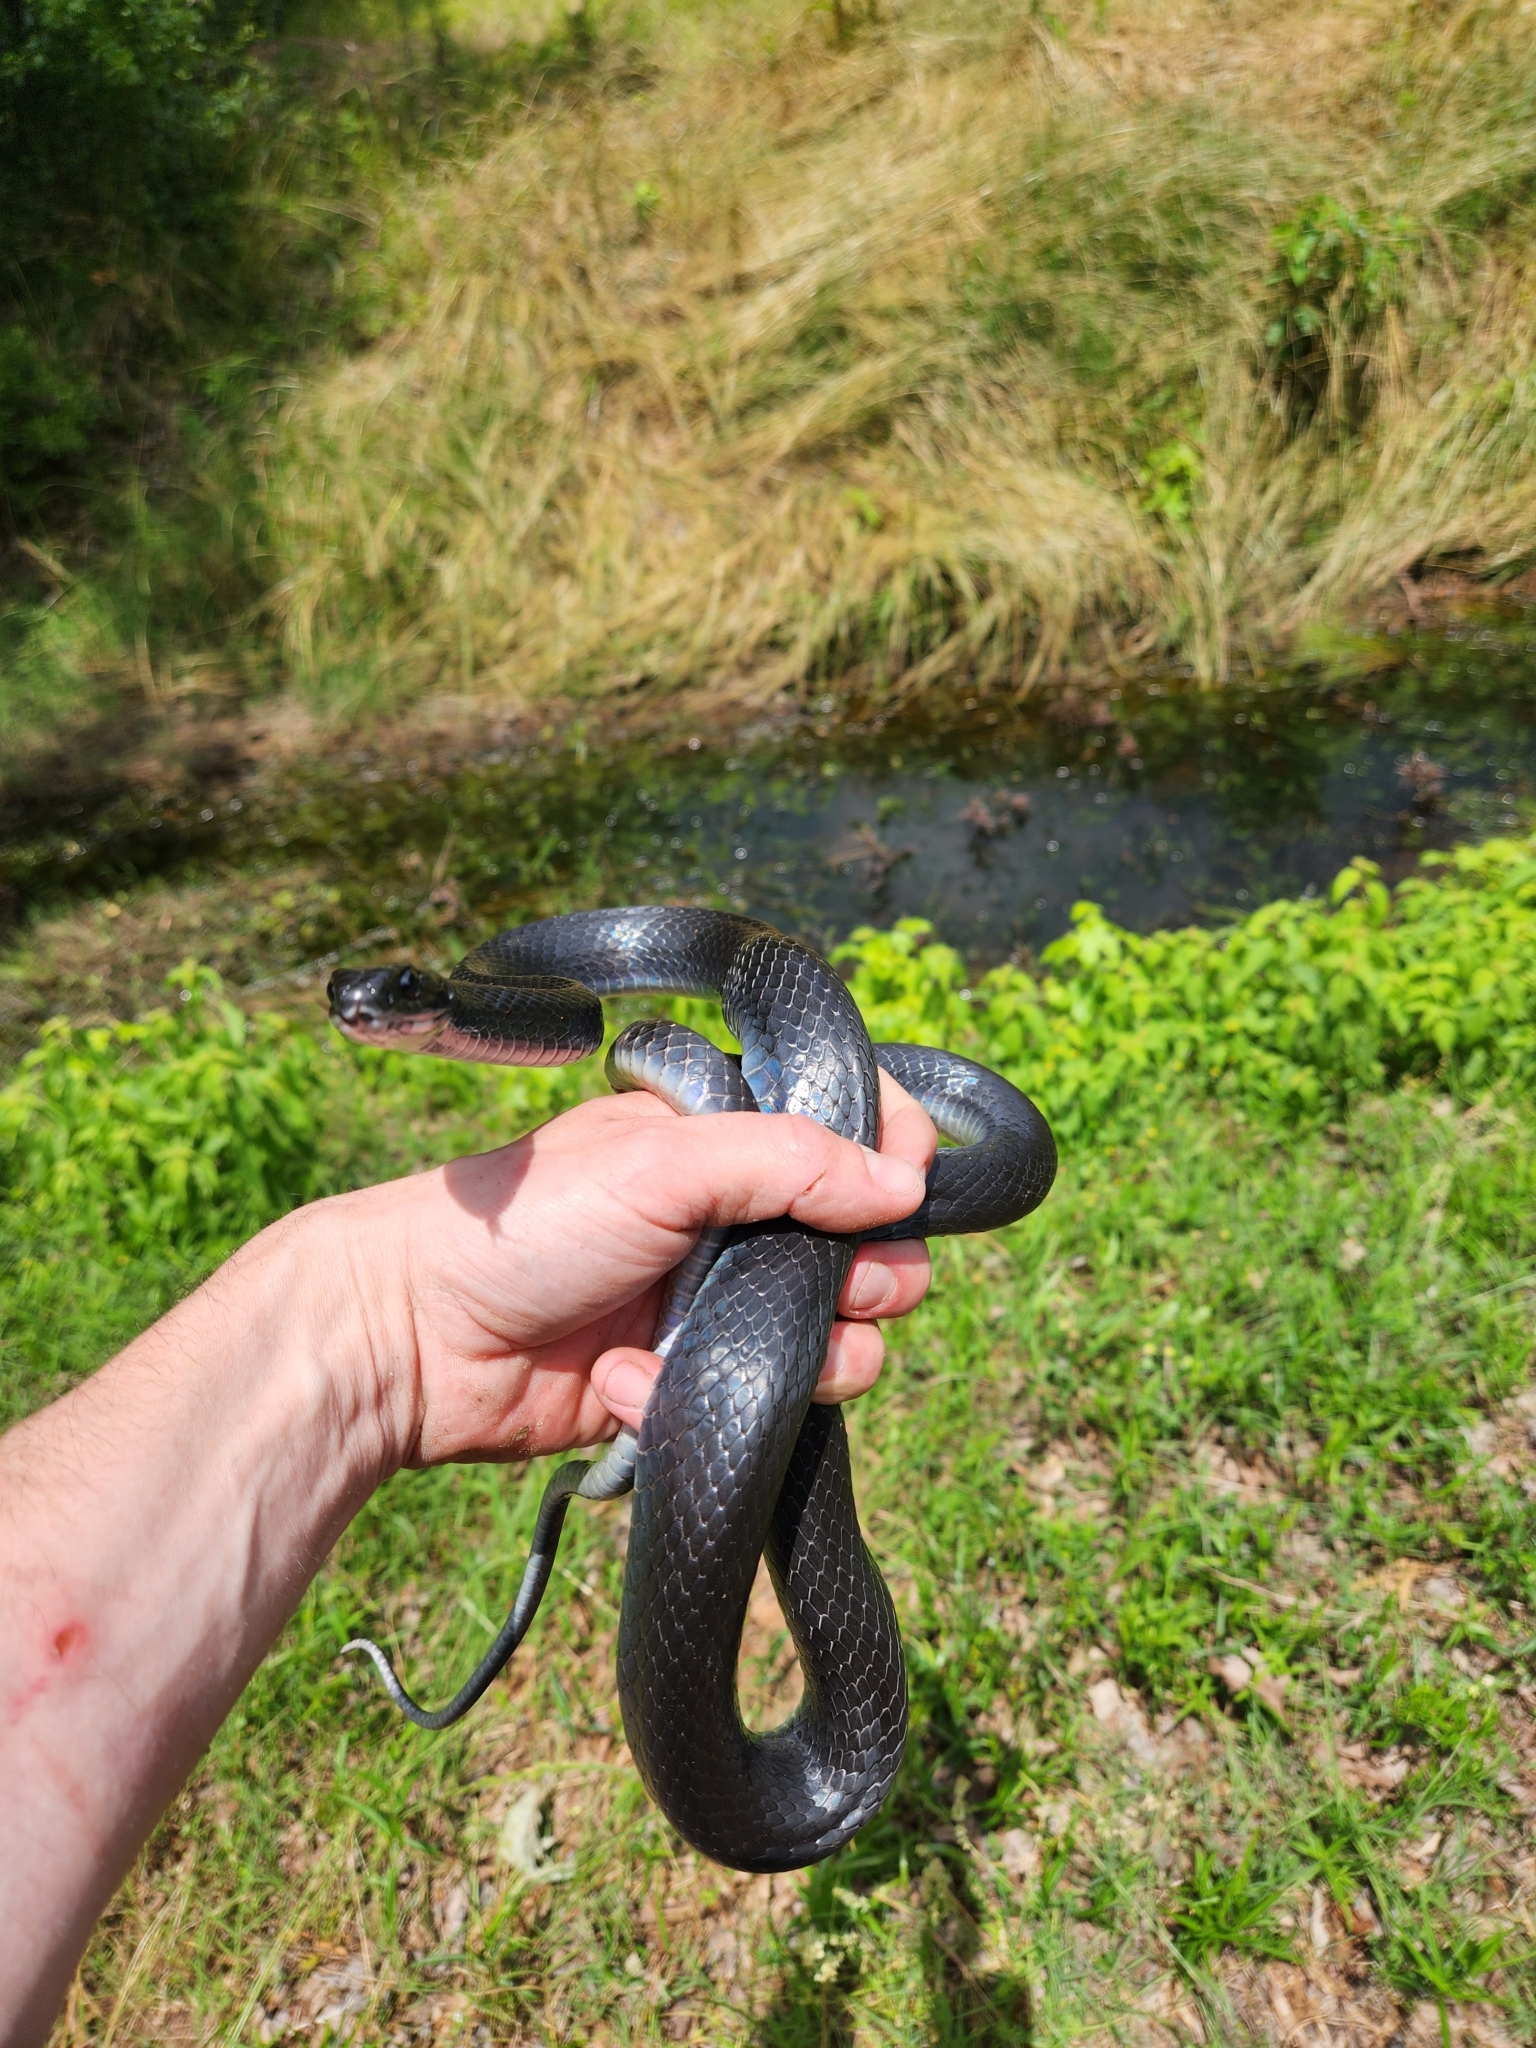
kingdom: Animalia
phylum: Chordata
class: Squamata
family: Colubridae
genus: Coluber
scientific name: Coluber constrictor
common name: Eastern racer
